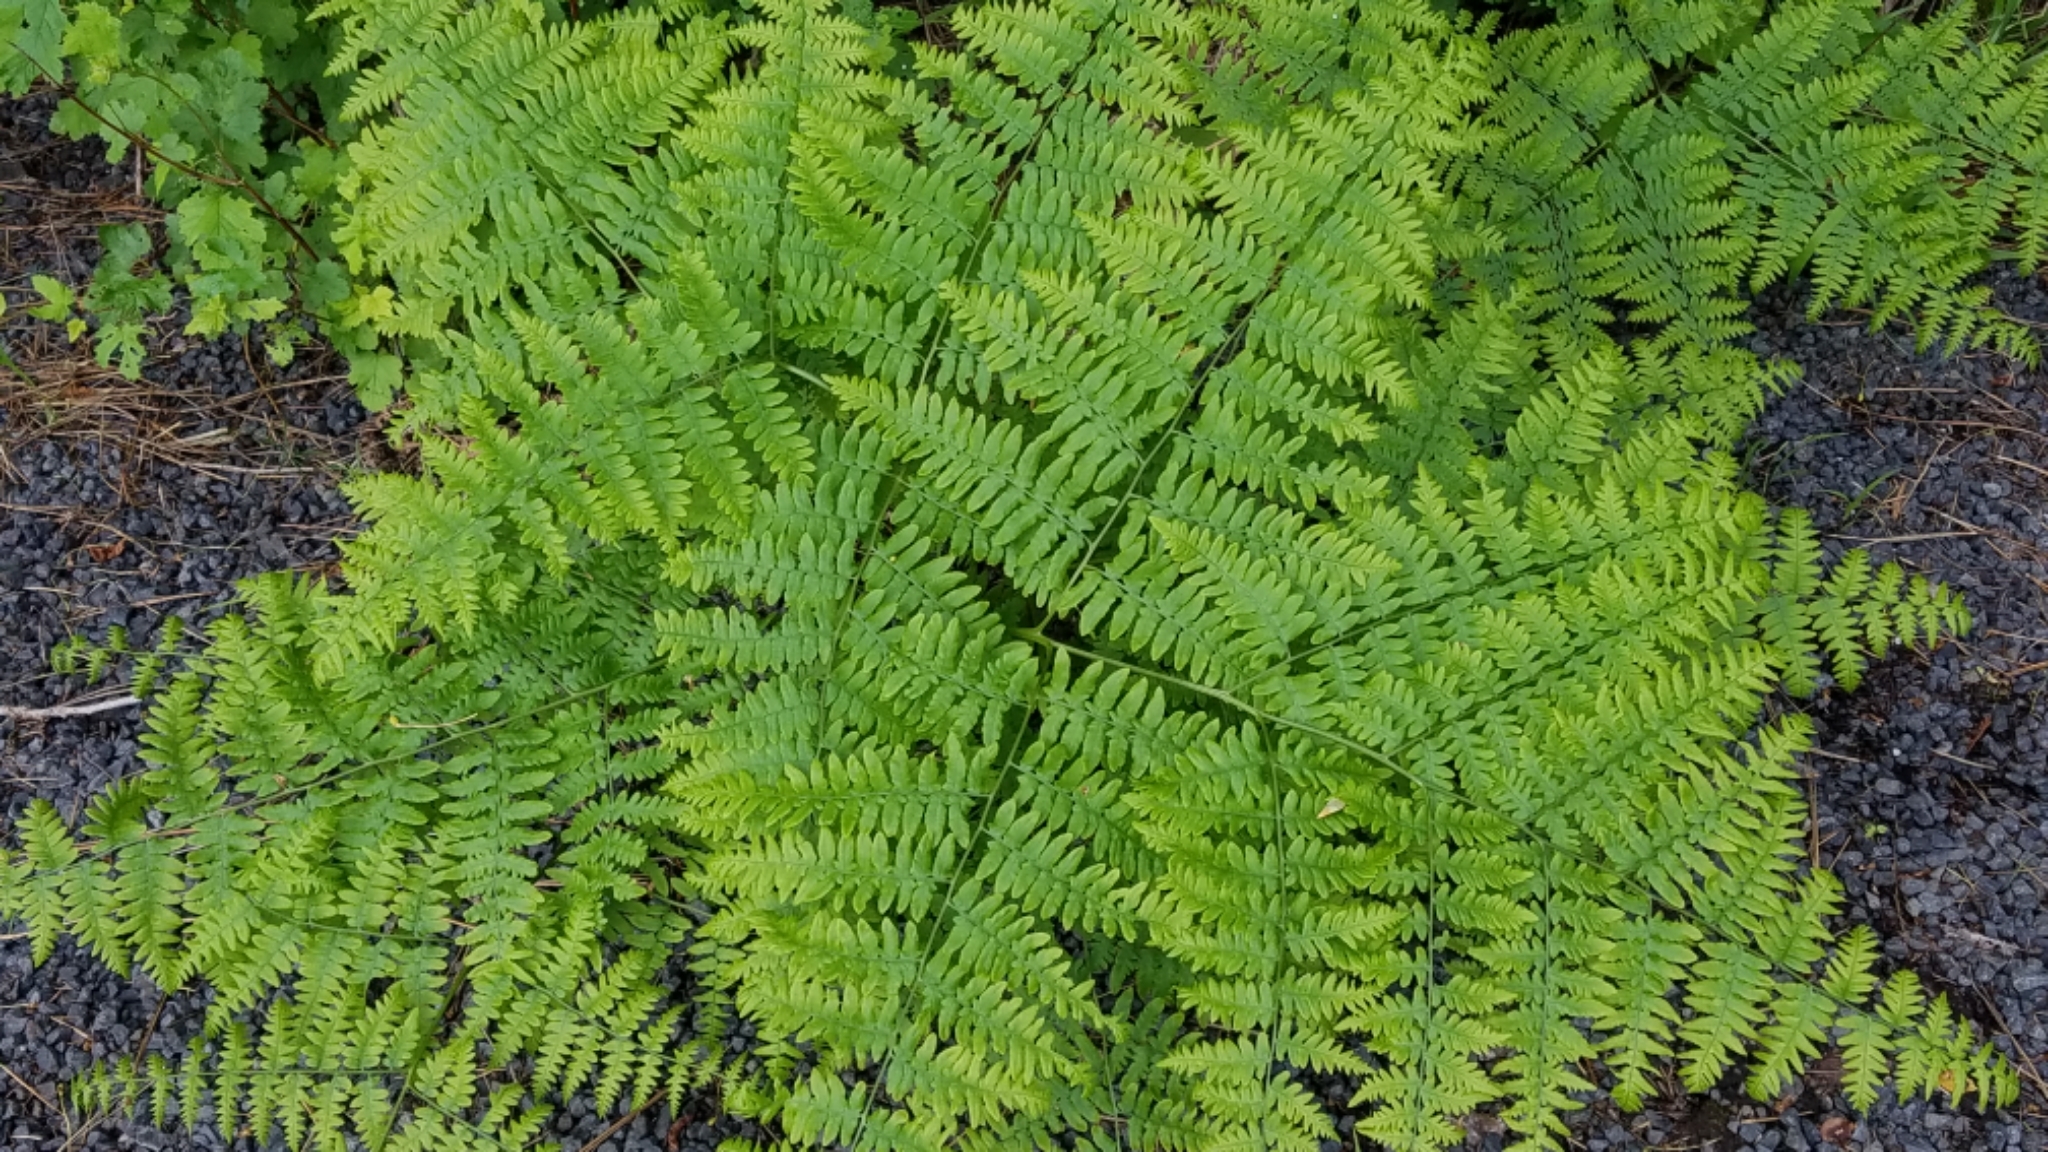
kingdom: Plantae
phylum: Tracheophyta
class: Polypodiopsida
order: Polypodiales
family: Dennstaedtiaceae
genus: Pteridium
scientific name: Pteridium aquilinum
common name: Bracken
